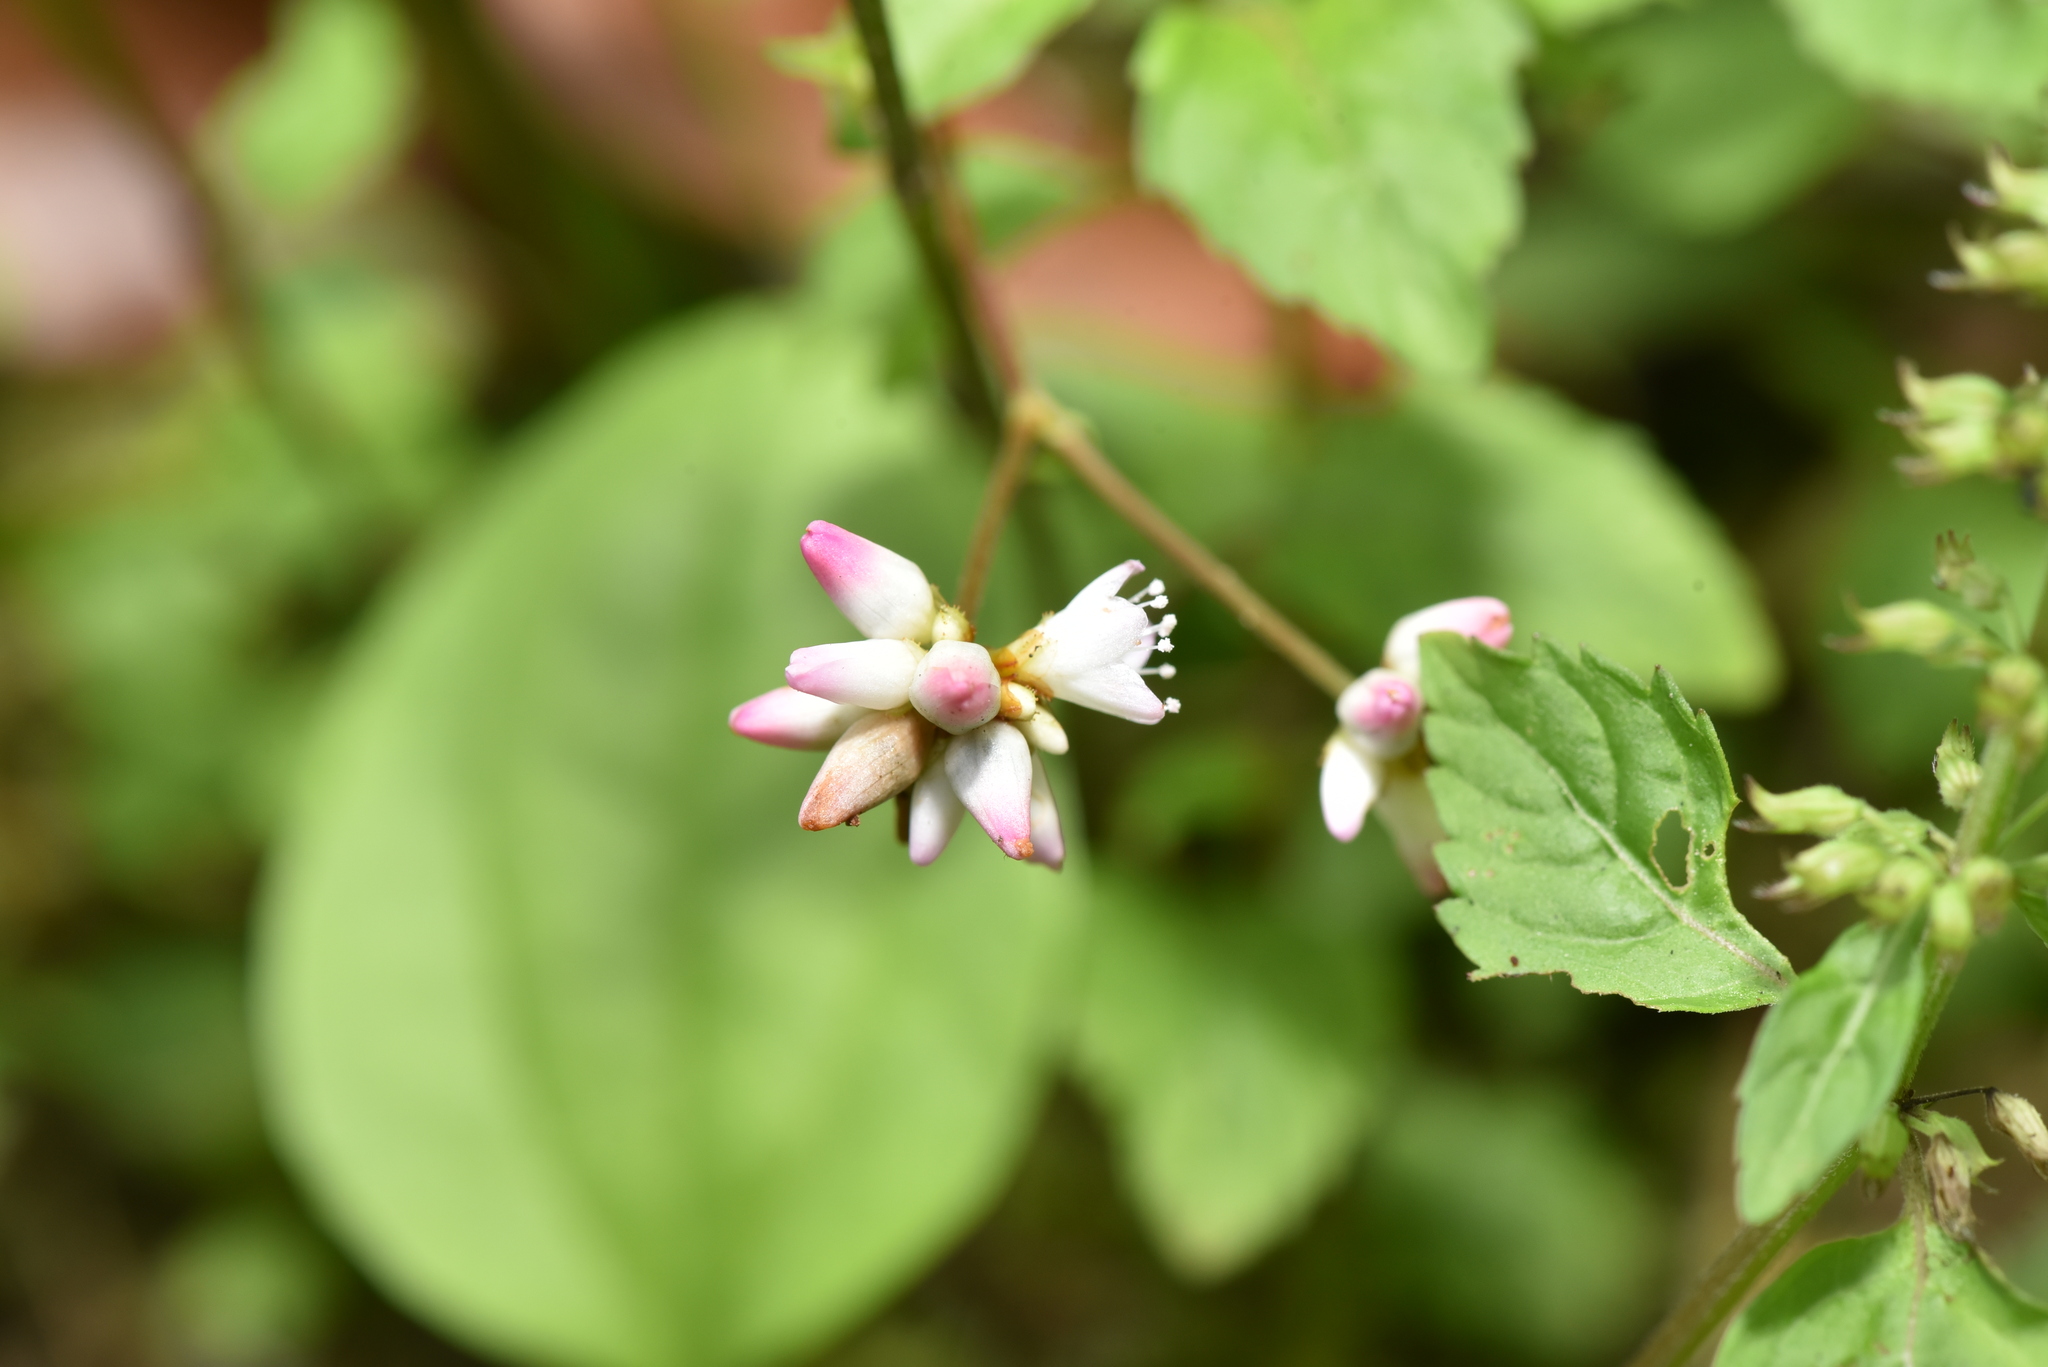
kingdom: Plantae
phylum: Tracheophyta
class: Magnoliopsida
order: Caryophyllales
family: Polygonaceae
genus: Persicaria
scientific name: Persicaria senticosa
